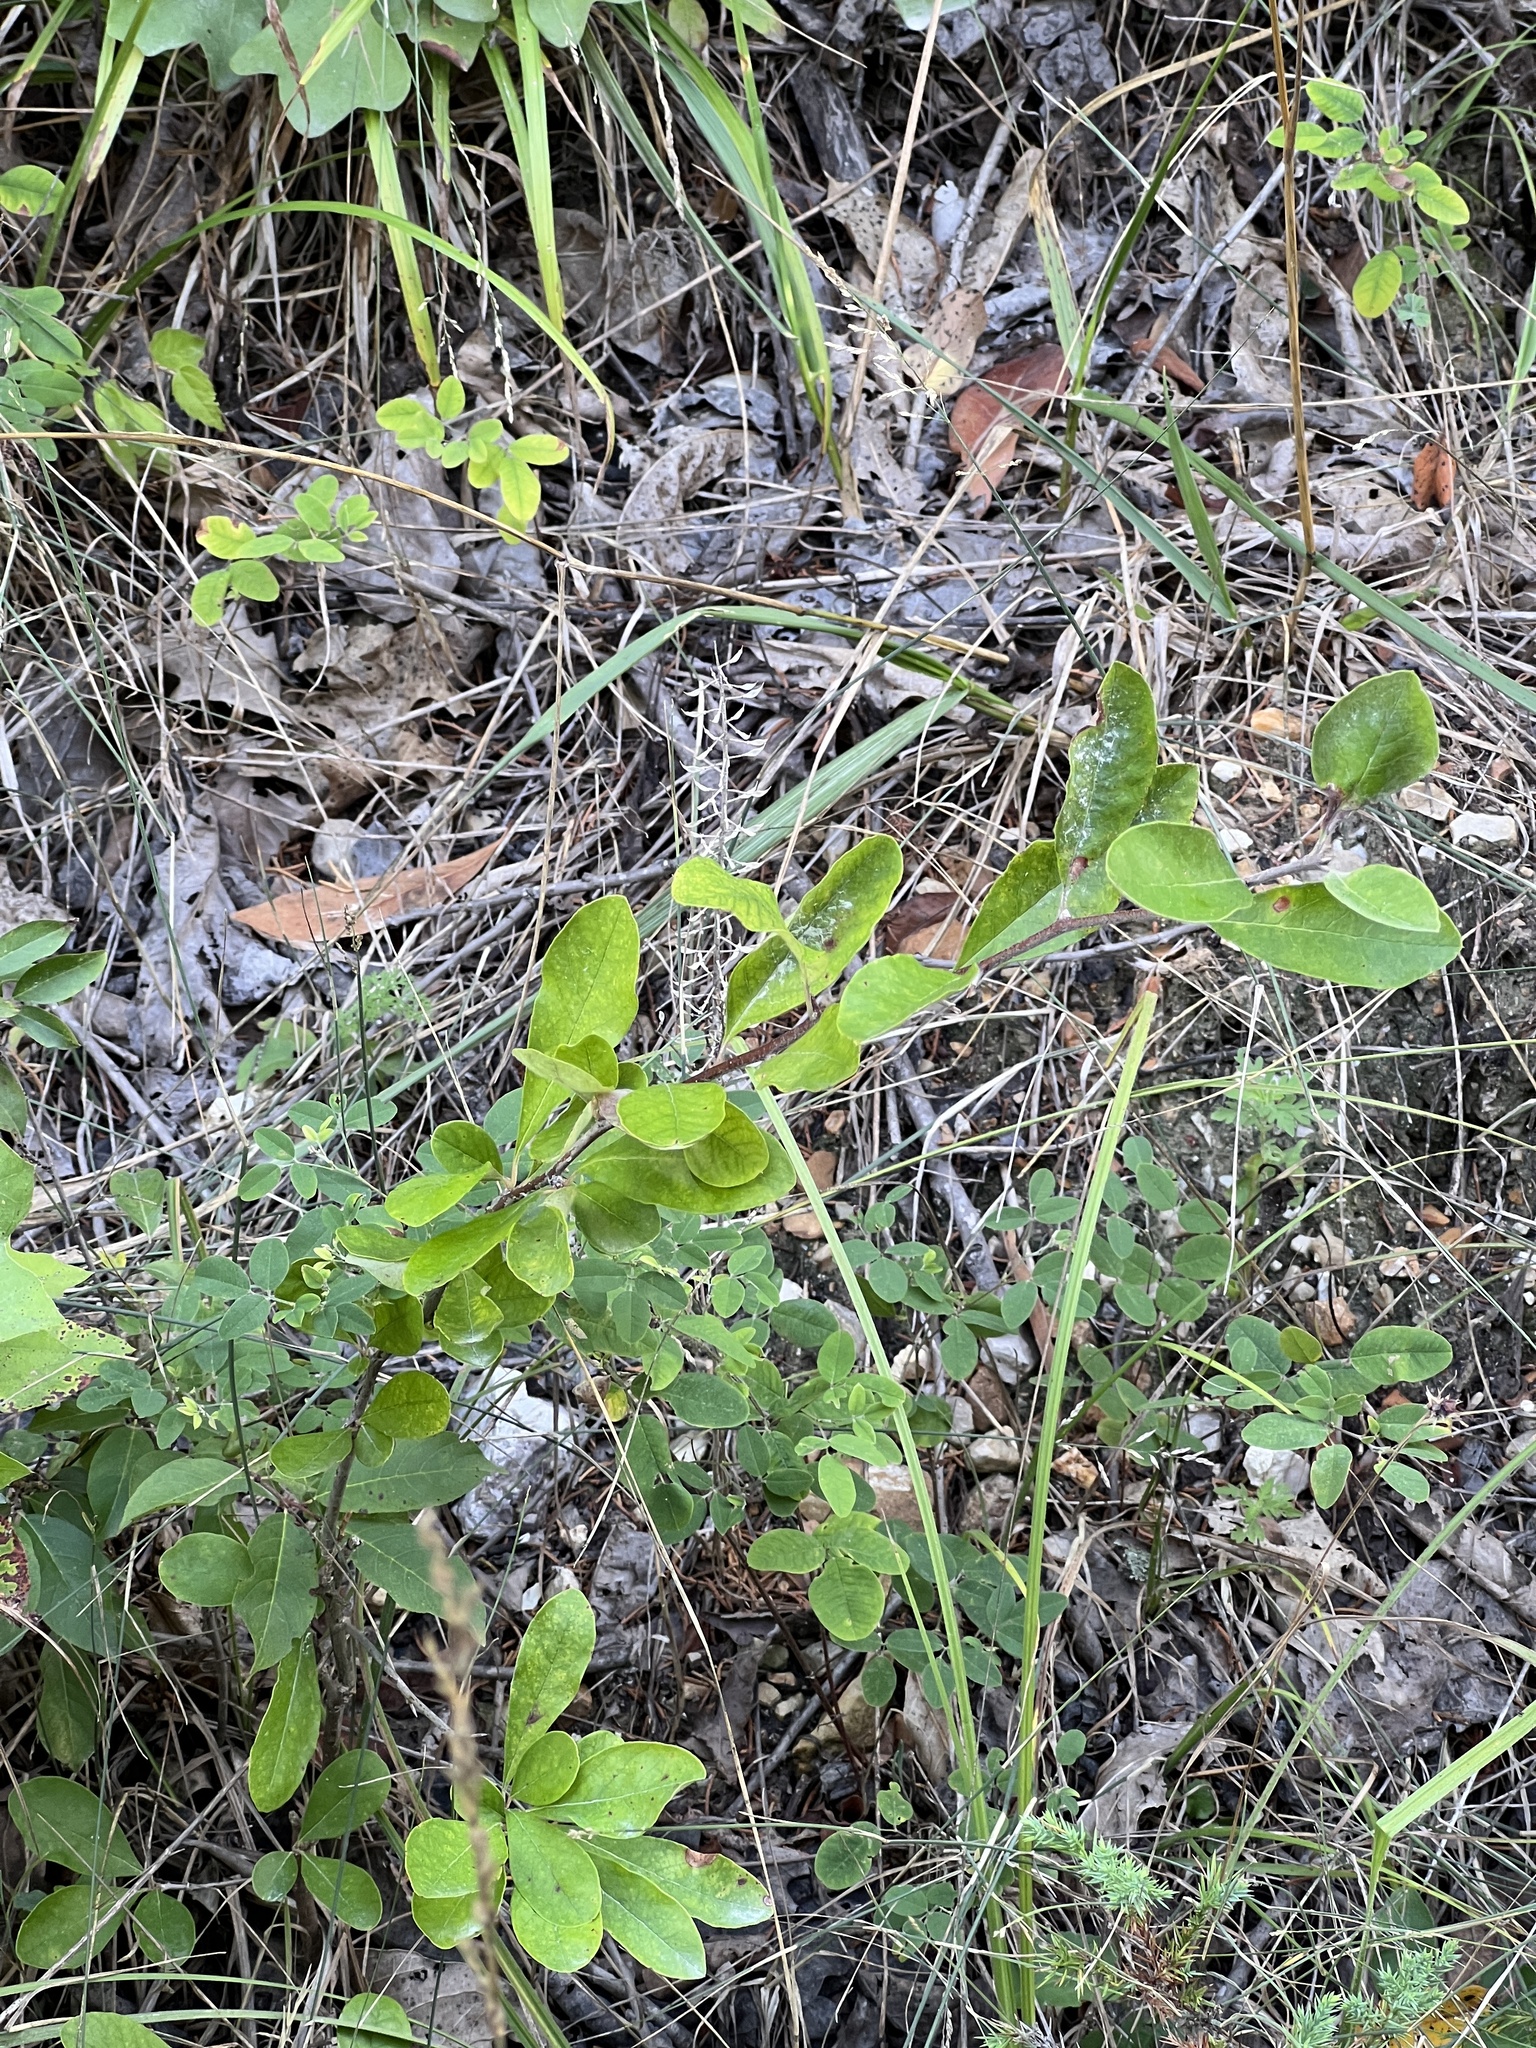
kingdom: Plantae
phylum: Tracheophyta
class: Magnoliopsida
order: Ericales
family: Sapotaceae
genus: Sideroxylon
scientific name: Sideroxylon lanuginosum
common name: Chittamwood
